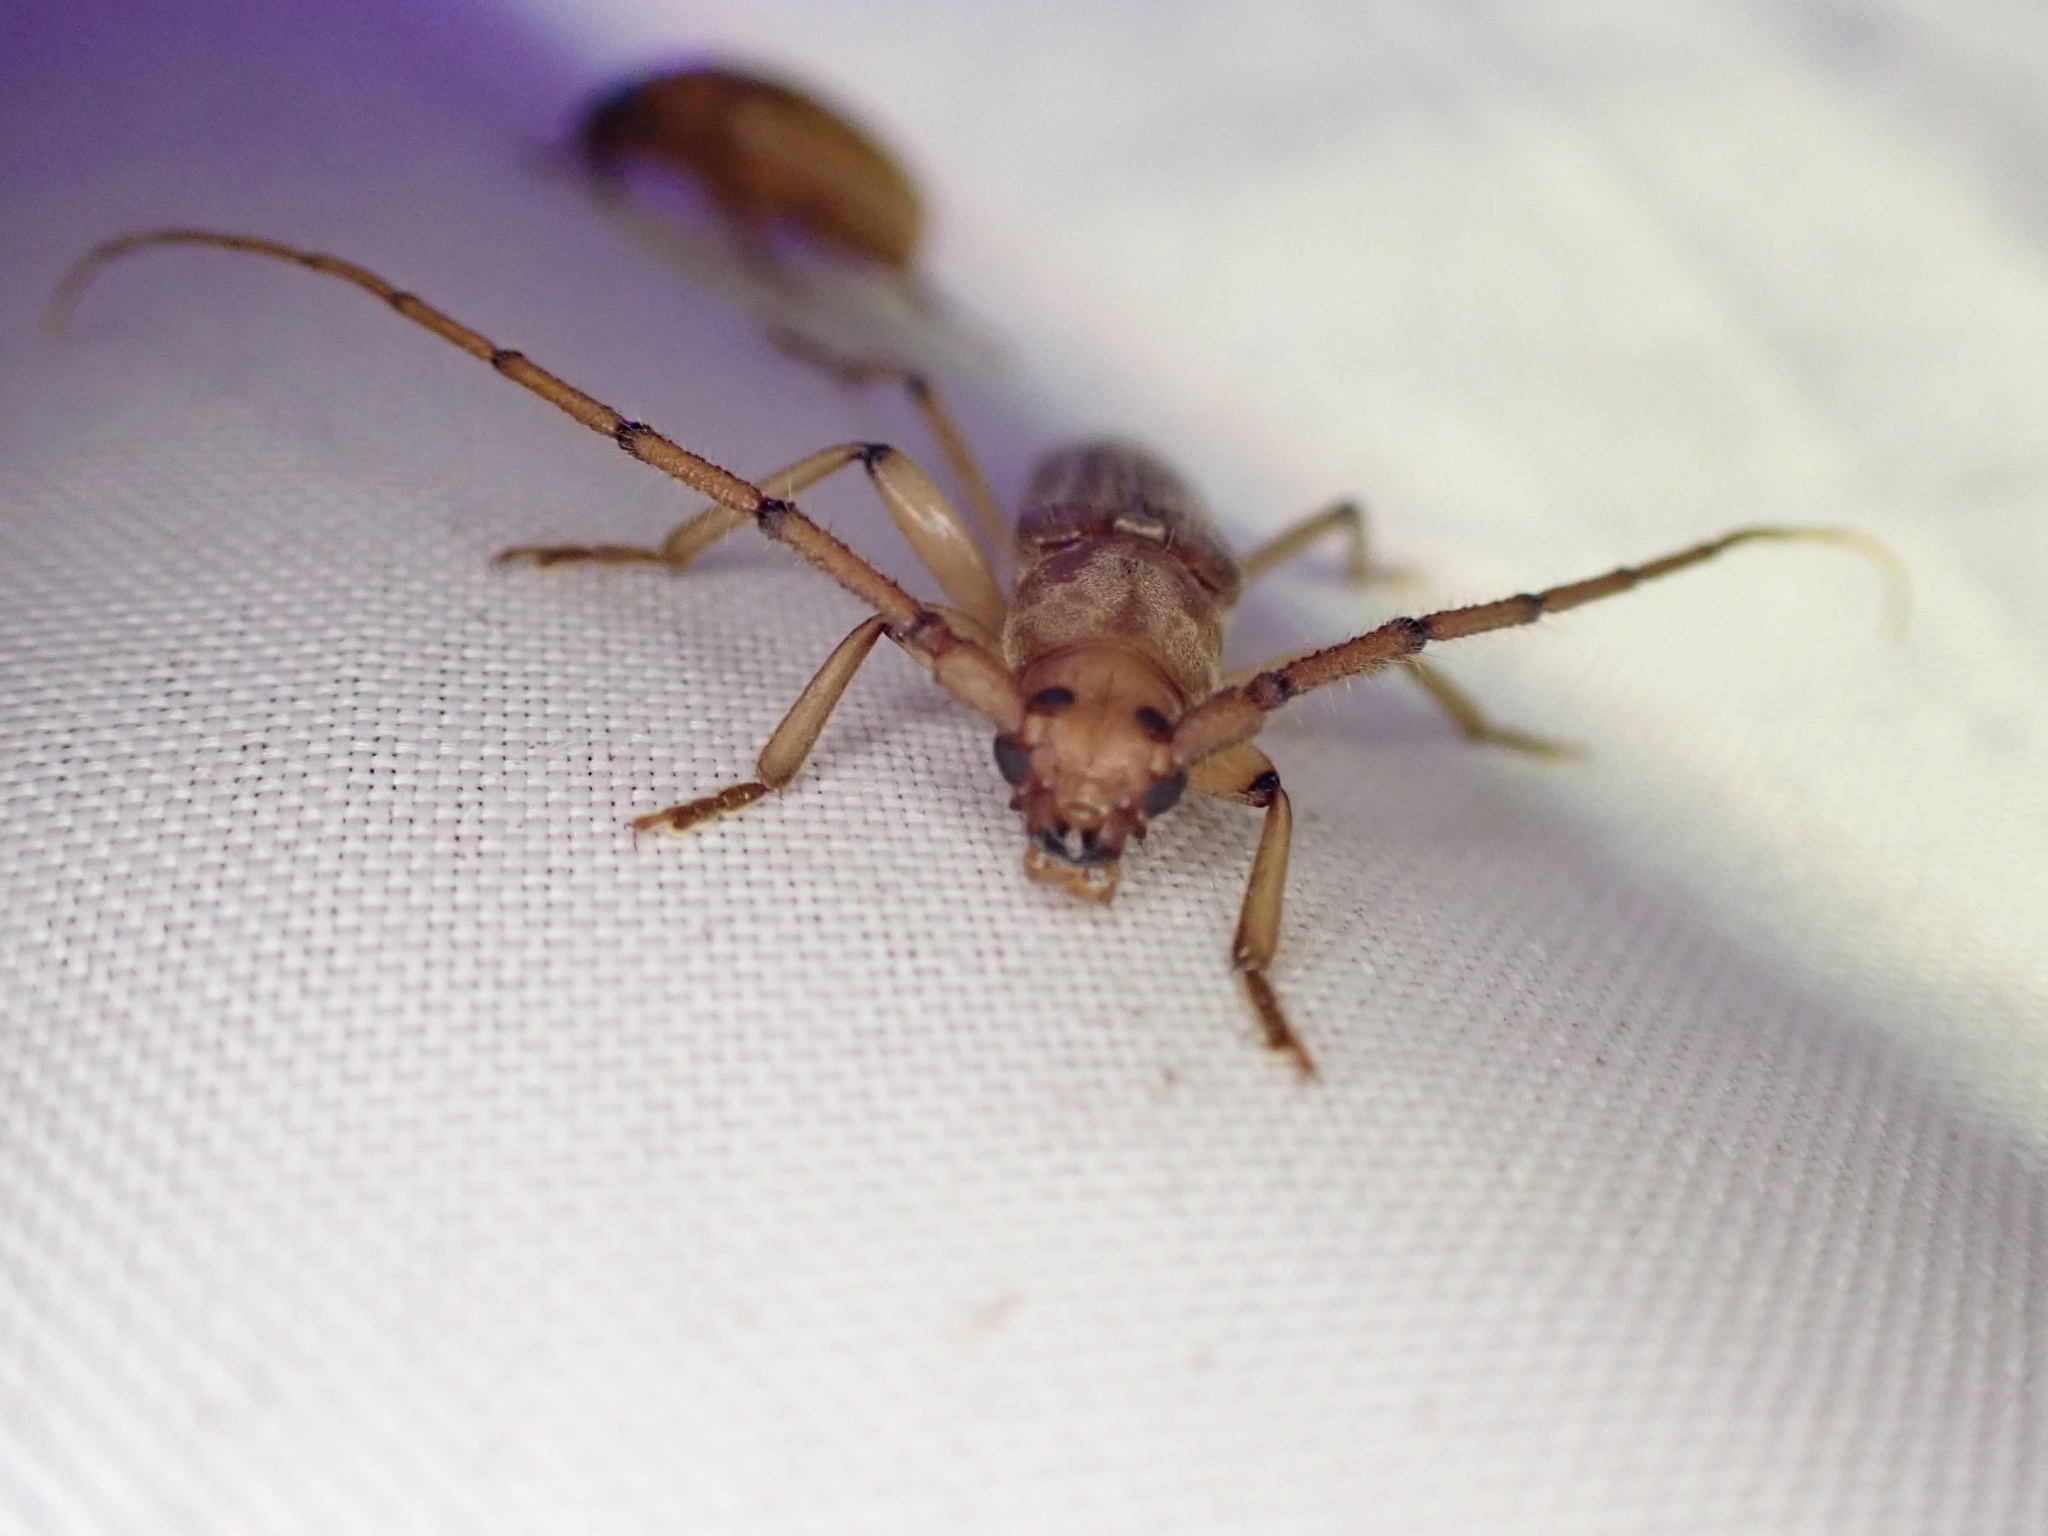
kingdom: Animalia
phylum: Arthropoda
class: Insecta
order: Coleoptera
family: Cerambycidae
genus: Malacopterus
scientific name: Malacopterus tenellus
